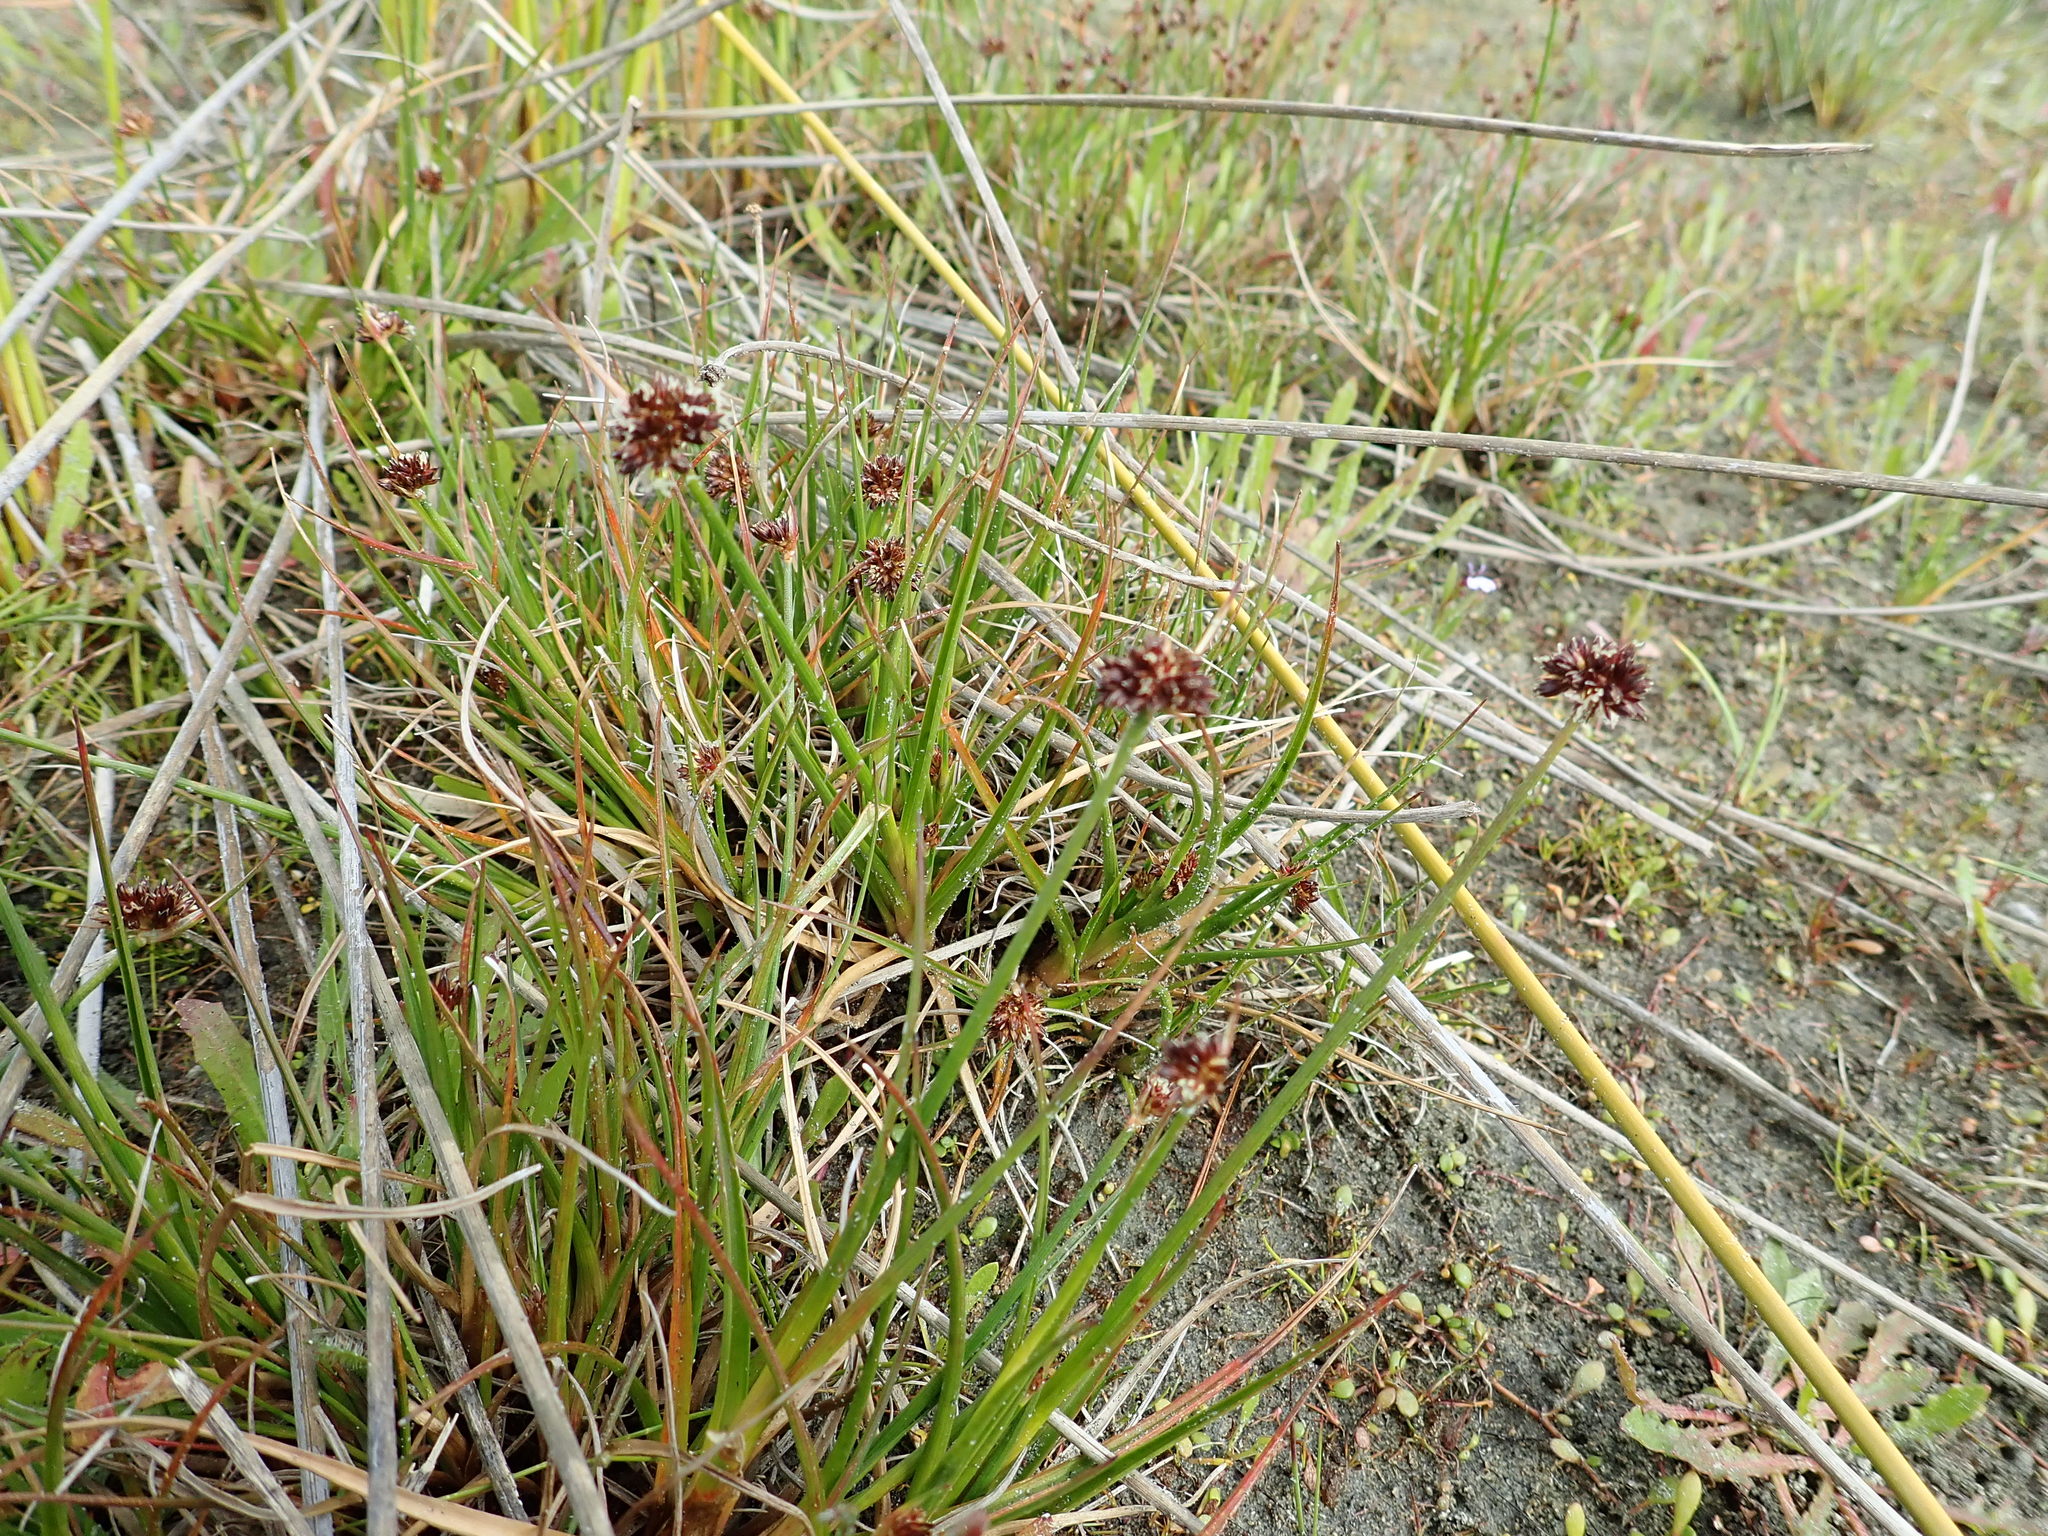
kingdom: Plantae
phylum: Tracheophyta
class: Liliopsida
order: Poales
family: Juncaceae
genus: Juncus
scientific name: Juncus caespiticius
